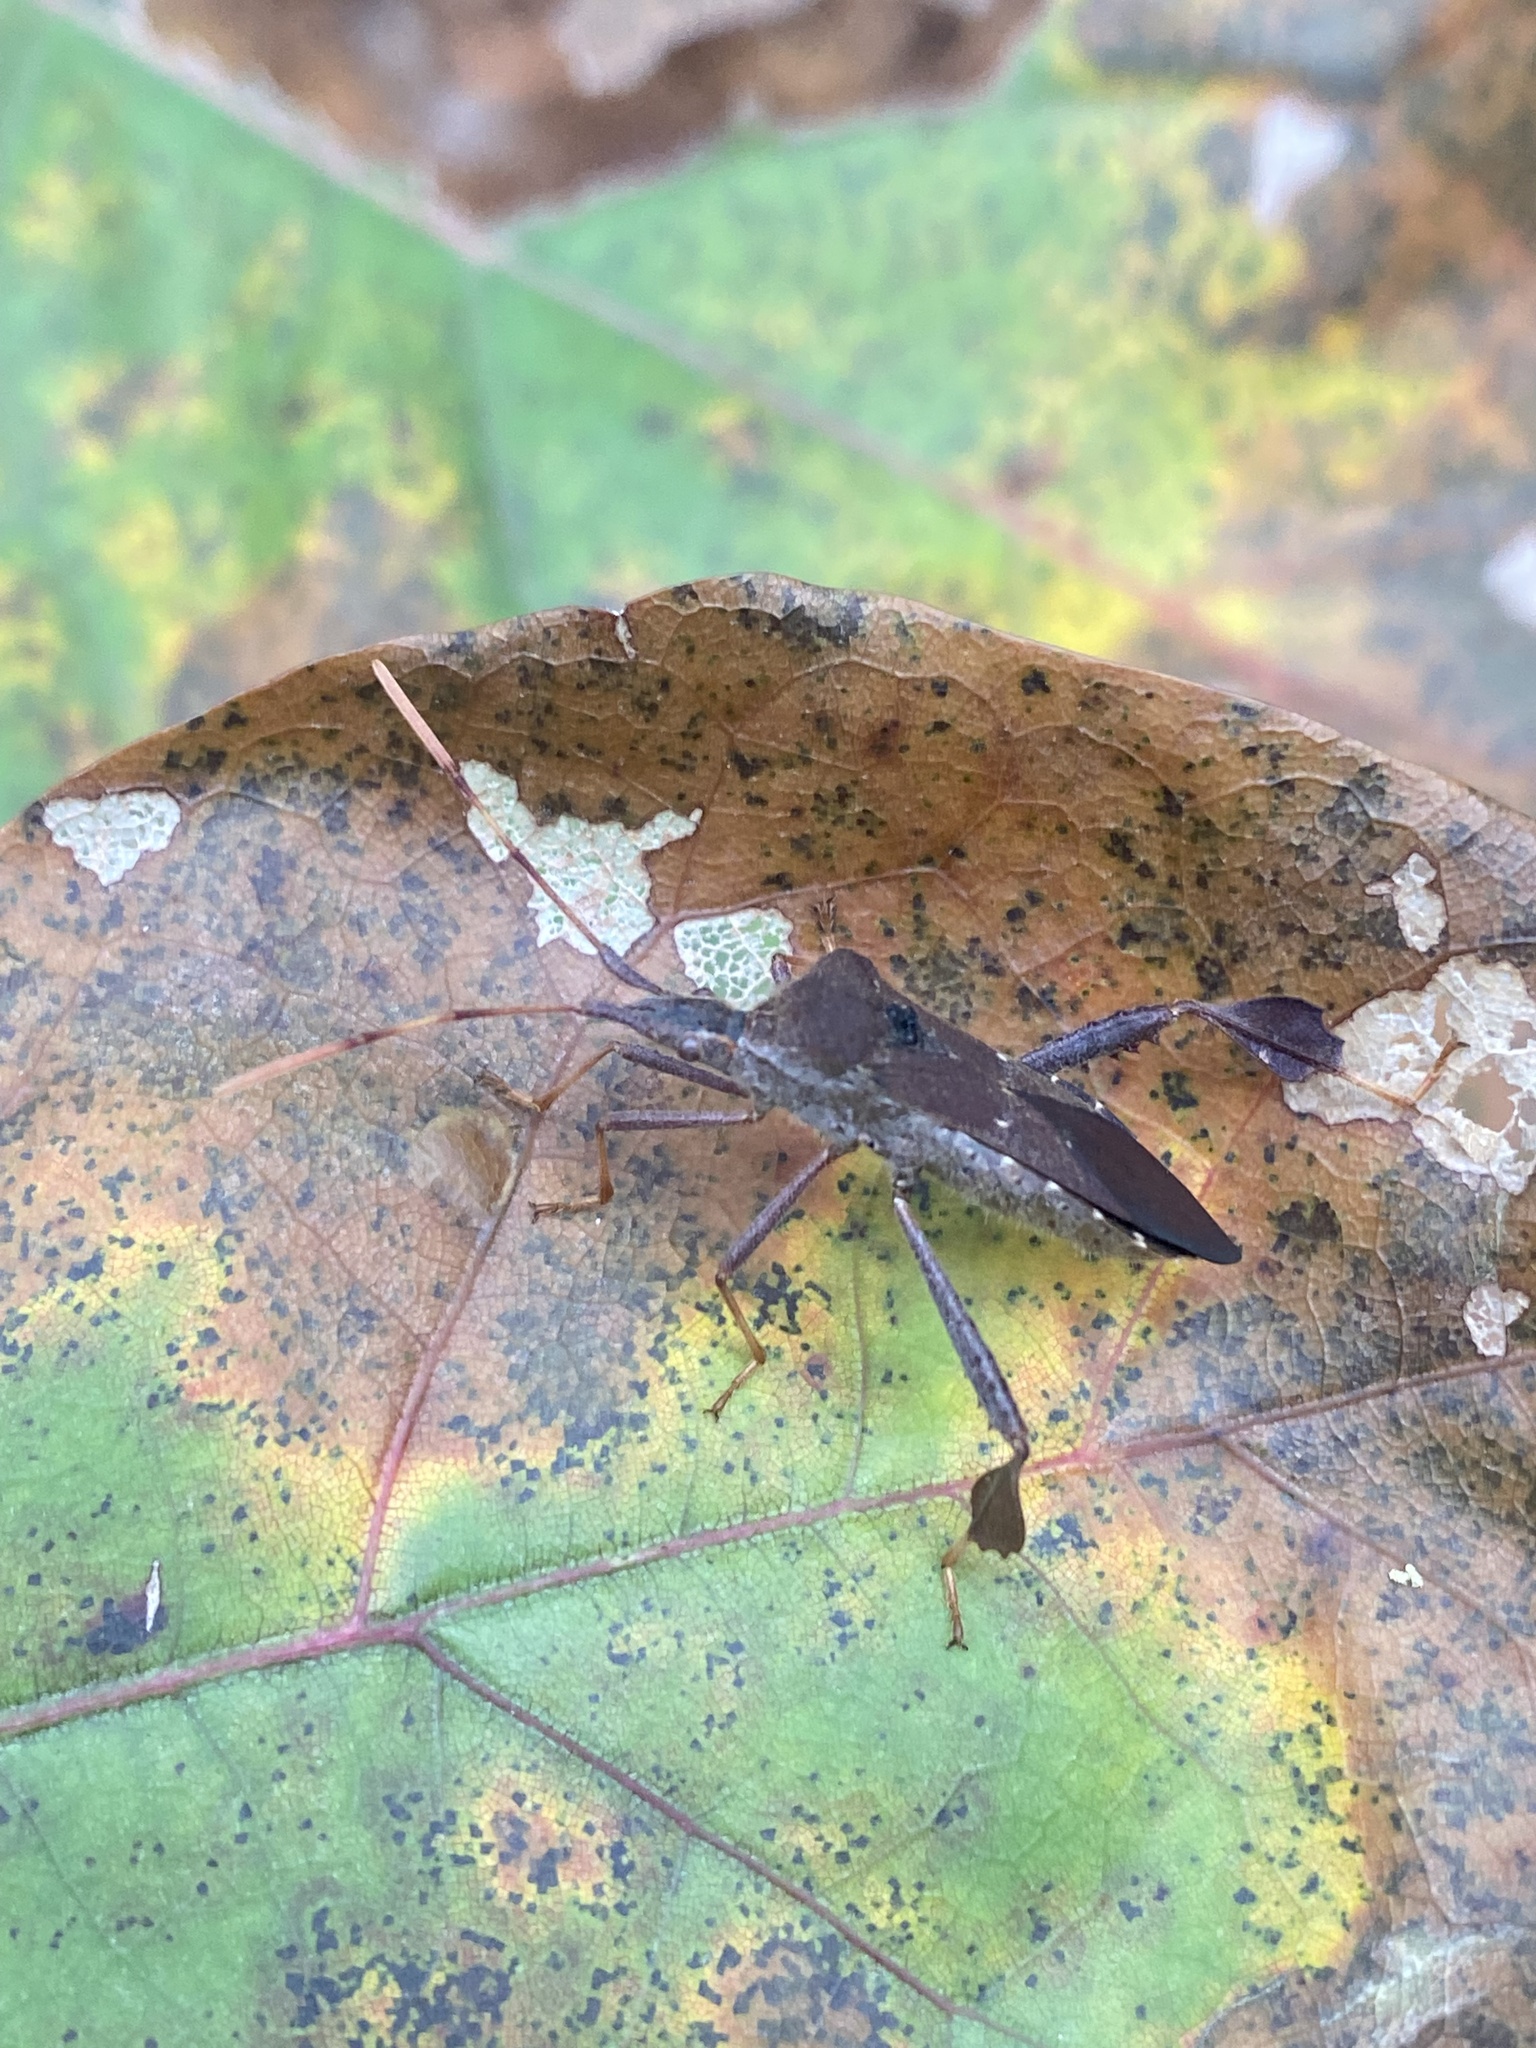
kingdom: Animalia
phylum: Arthropoda
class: Insecta
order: Hemiptera
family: Coreidae
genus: Leptoglossus
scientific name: Leptoglossus oppositus
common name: Northern leaf-footed bug
